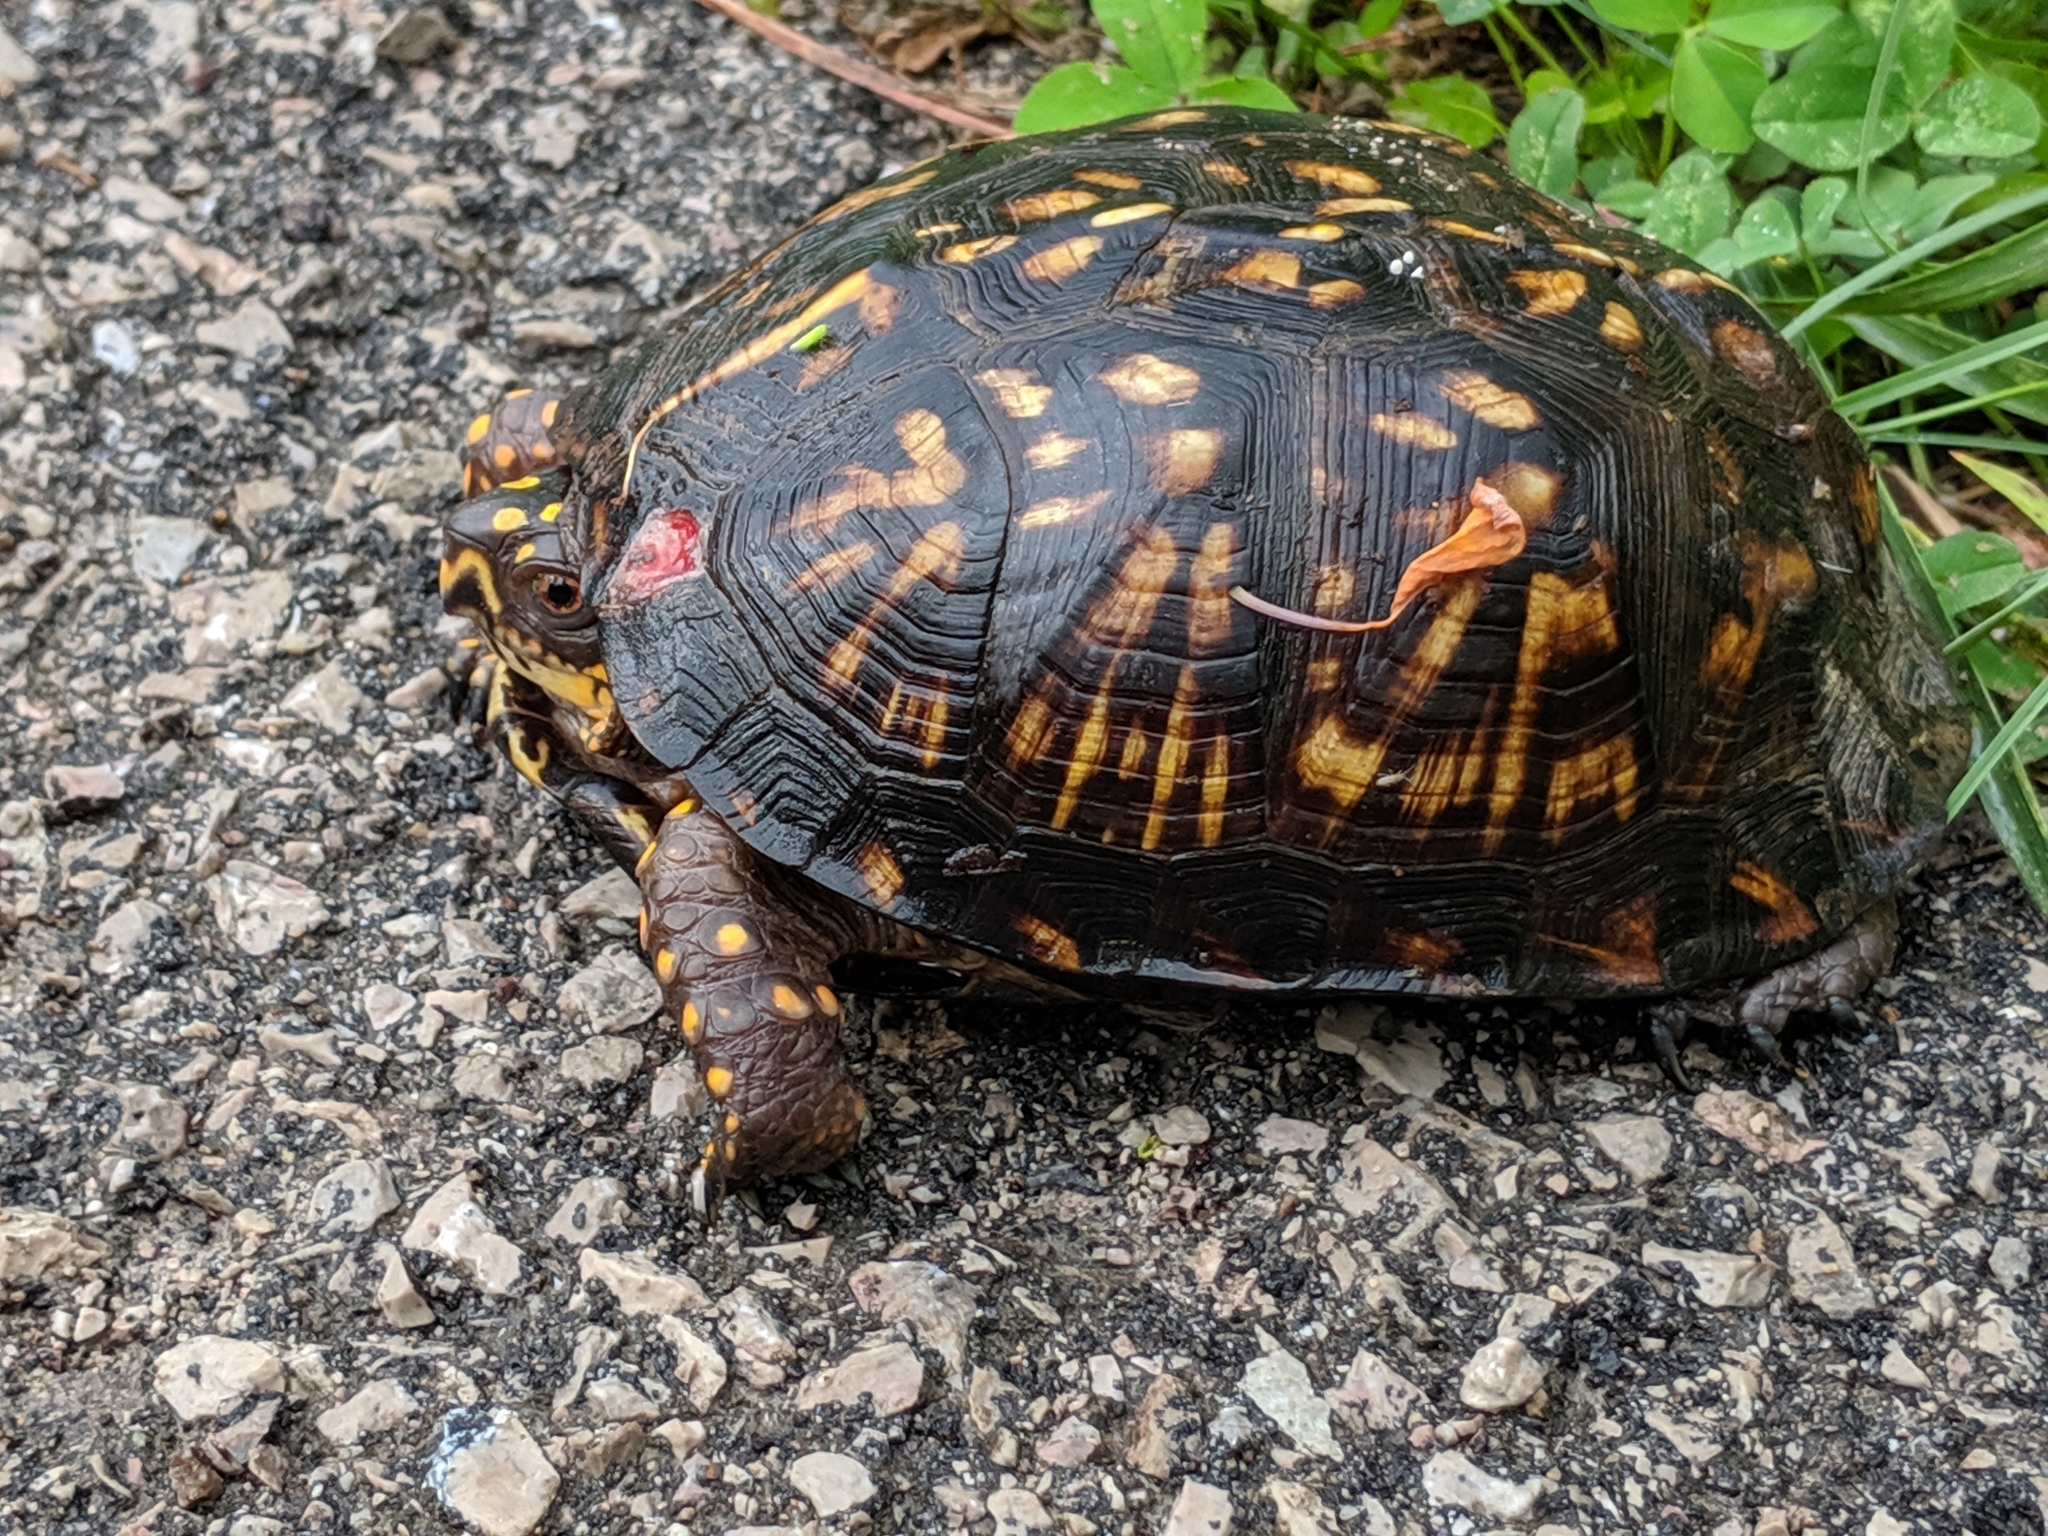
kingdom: Animalia
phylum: Chordata
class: Testudines
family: Emydidae
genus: Terrapene
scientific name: Terrapene carolina
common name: Common box turtle
